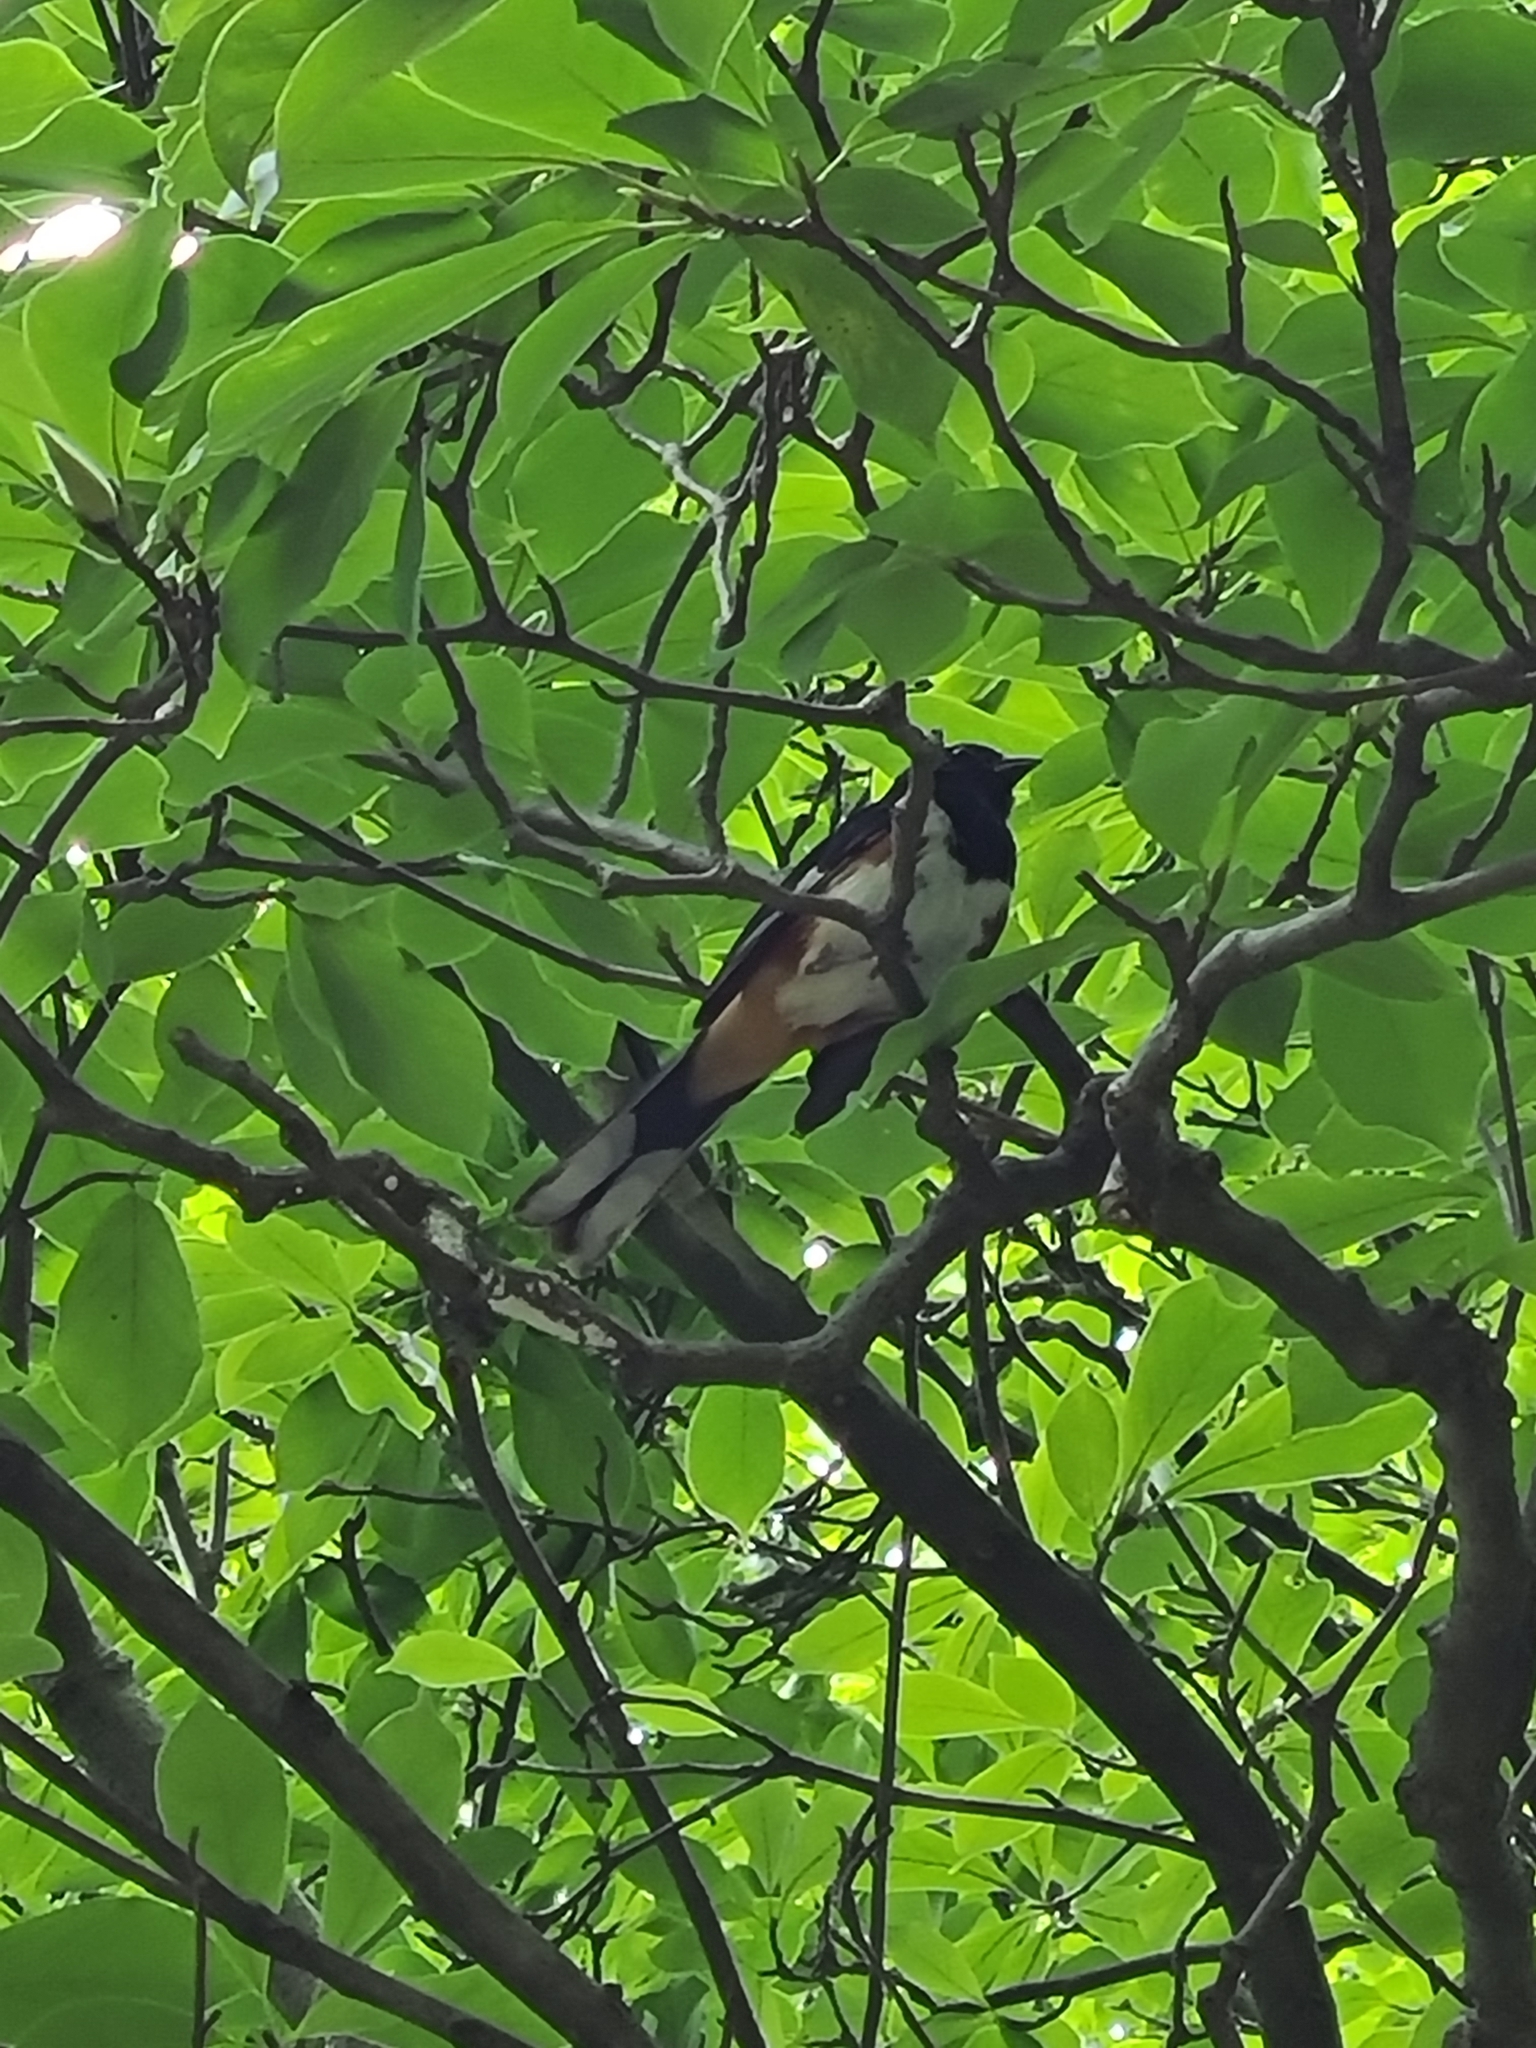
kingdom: Animalia
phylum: Chordata
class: Aves
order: Passeriformes
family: Passerellidae
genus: Pipilo
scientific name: Pipilo erythrophthalmus
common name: Eastern towhee
